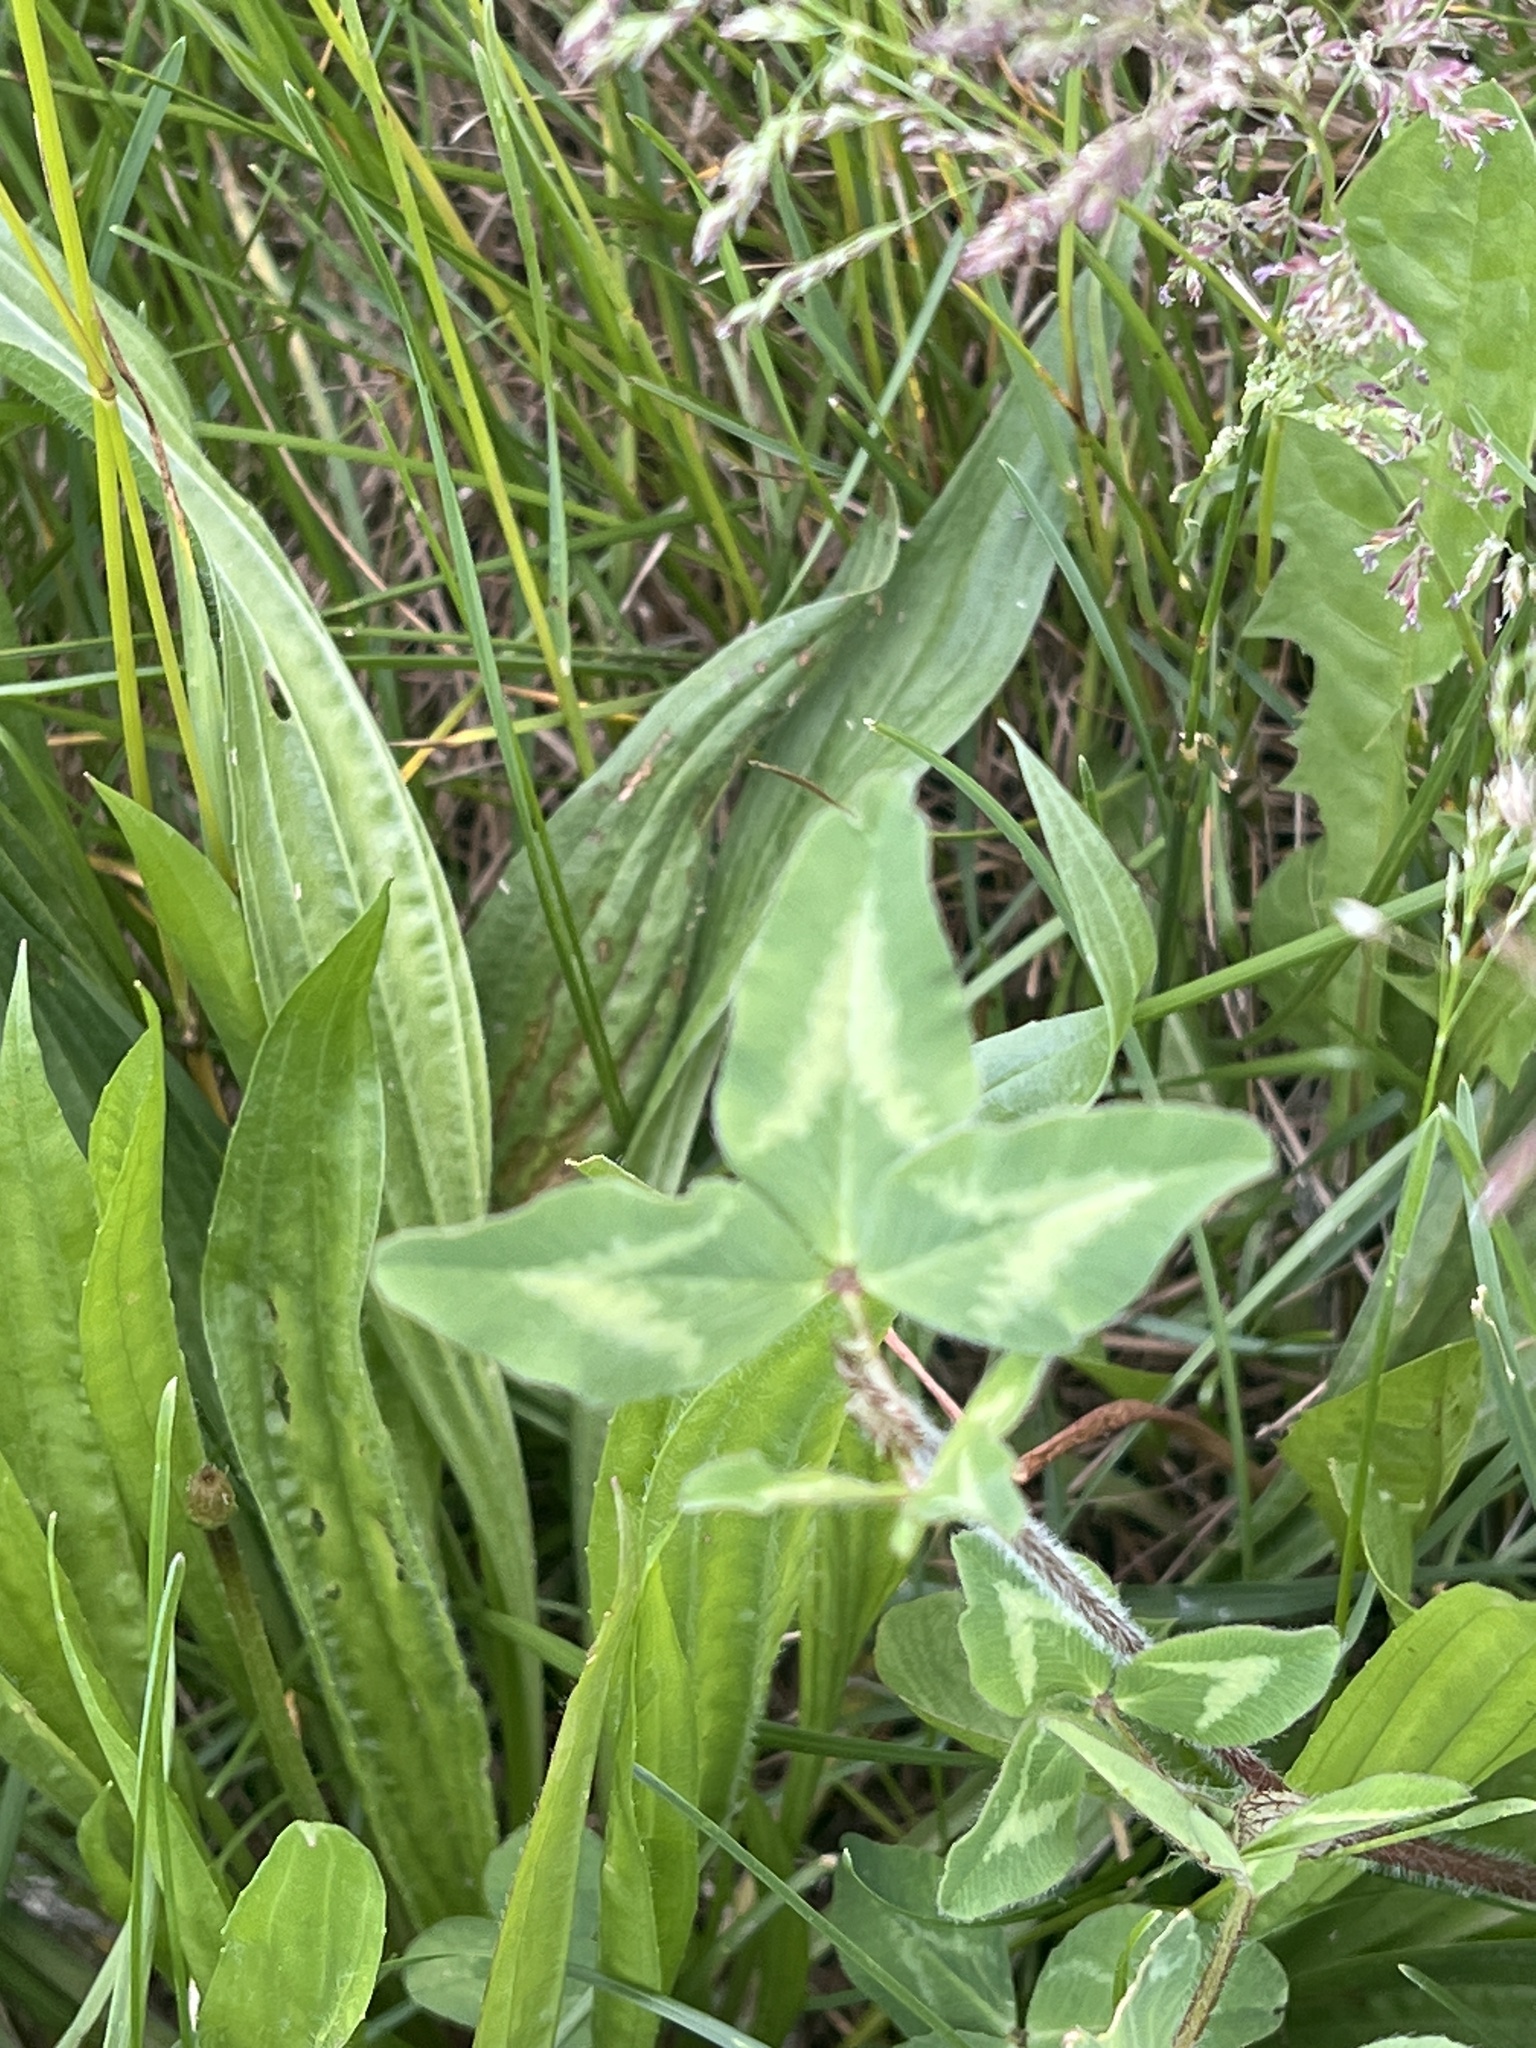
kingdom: Plantae
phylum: Tracheophyta
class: Magnoliopsida
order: Fabales
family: Fabaceae
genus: Trifolium
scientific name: Trifolium pratense
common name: Red clover
